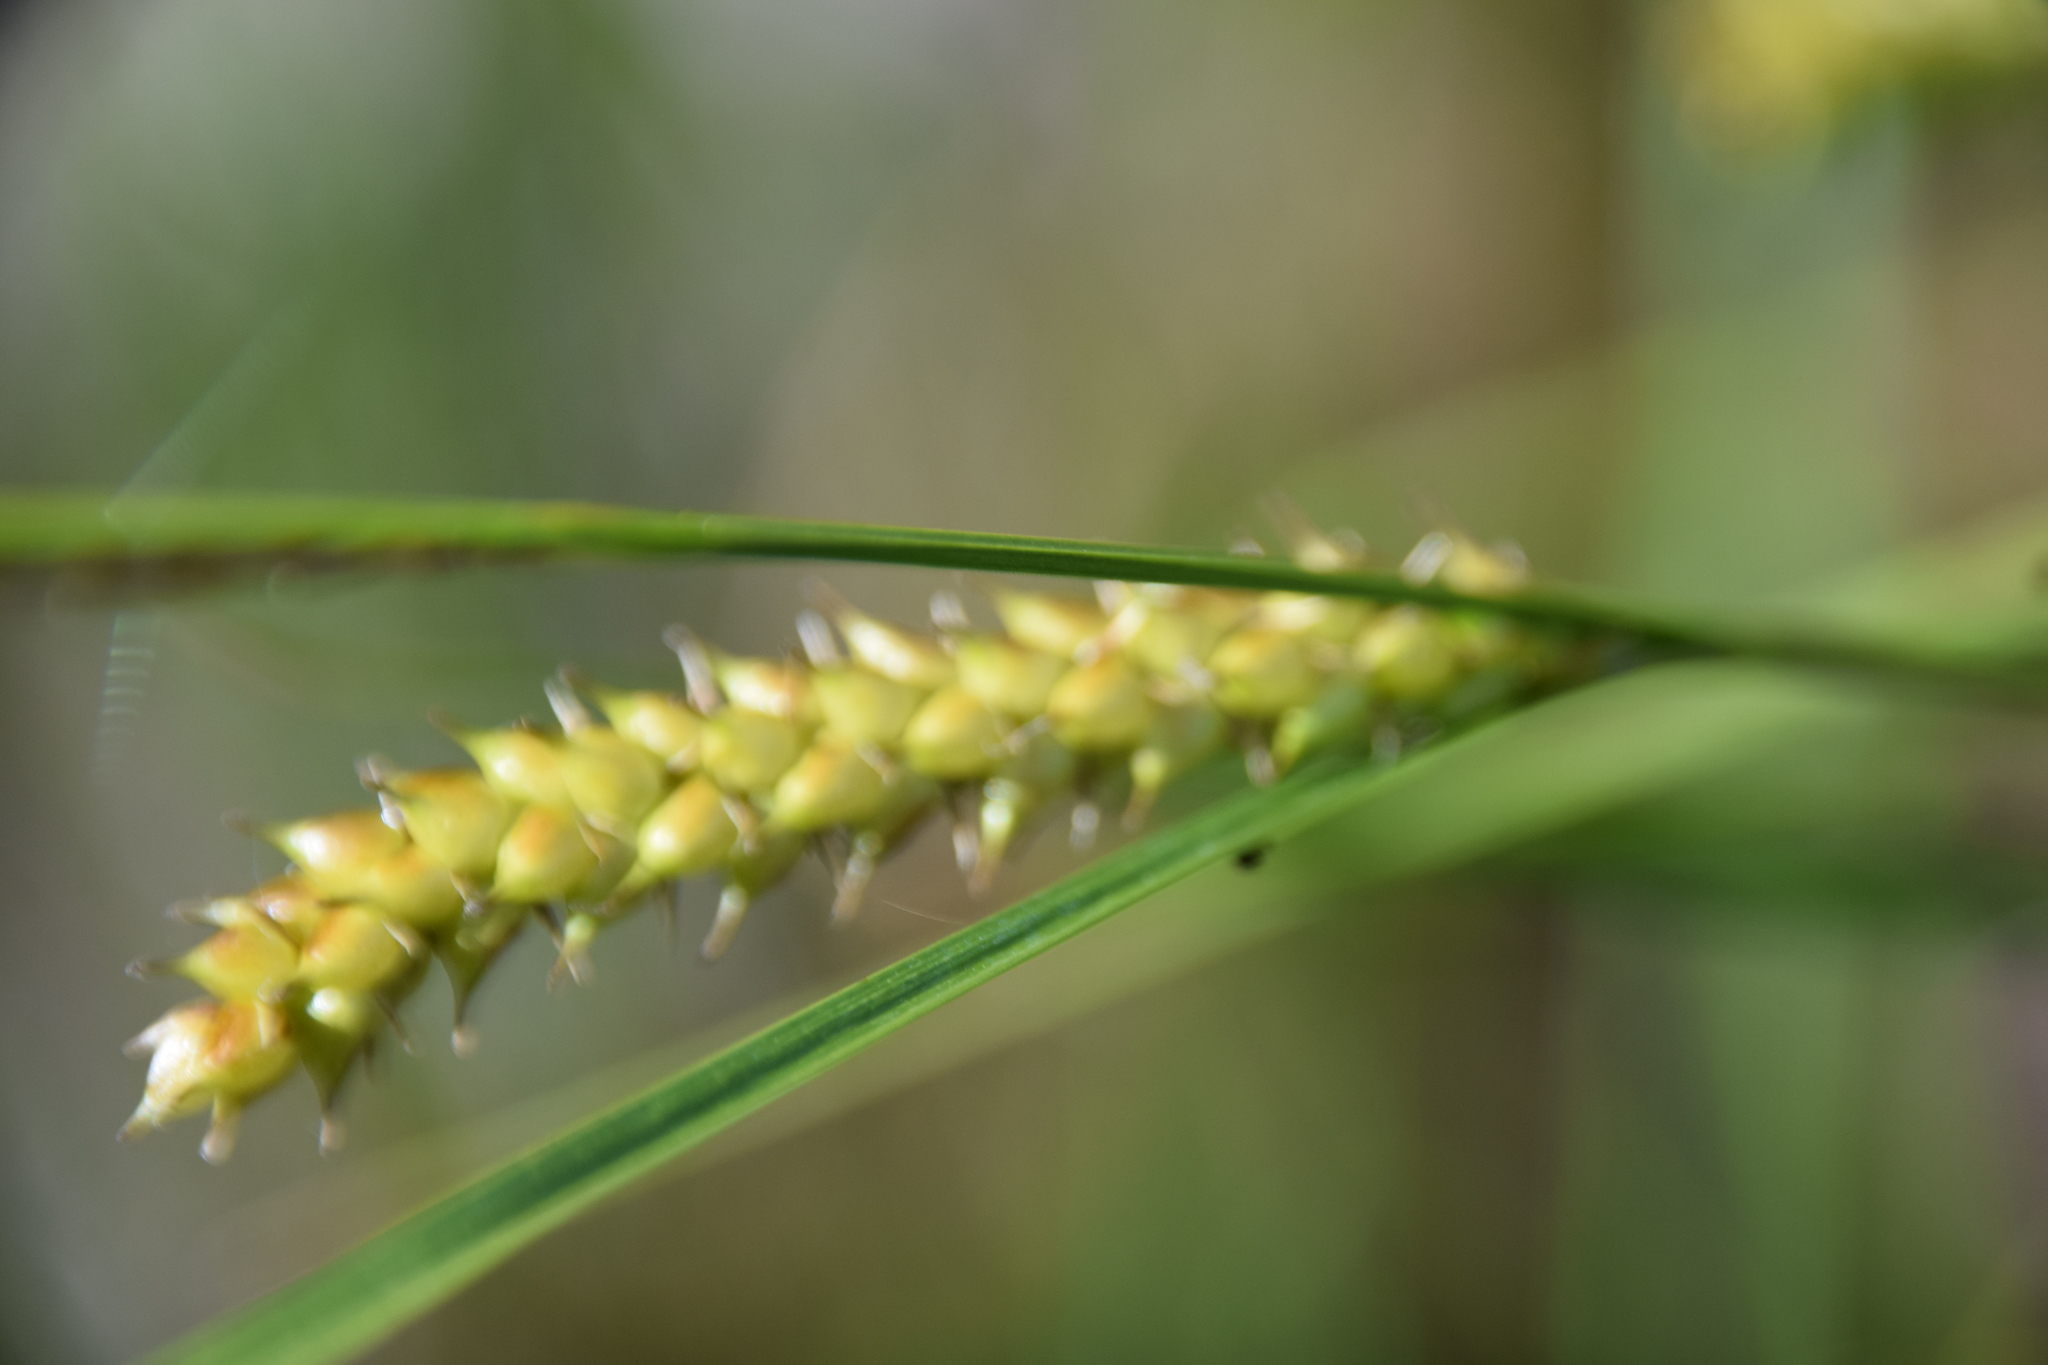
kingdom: Plantae
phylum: Tracheophyta
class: Liliopsida
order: Poales
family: Cyperaceae
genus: Carex
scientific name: Carex vesicaria
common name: Bladder-sedge
